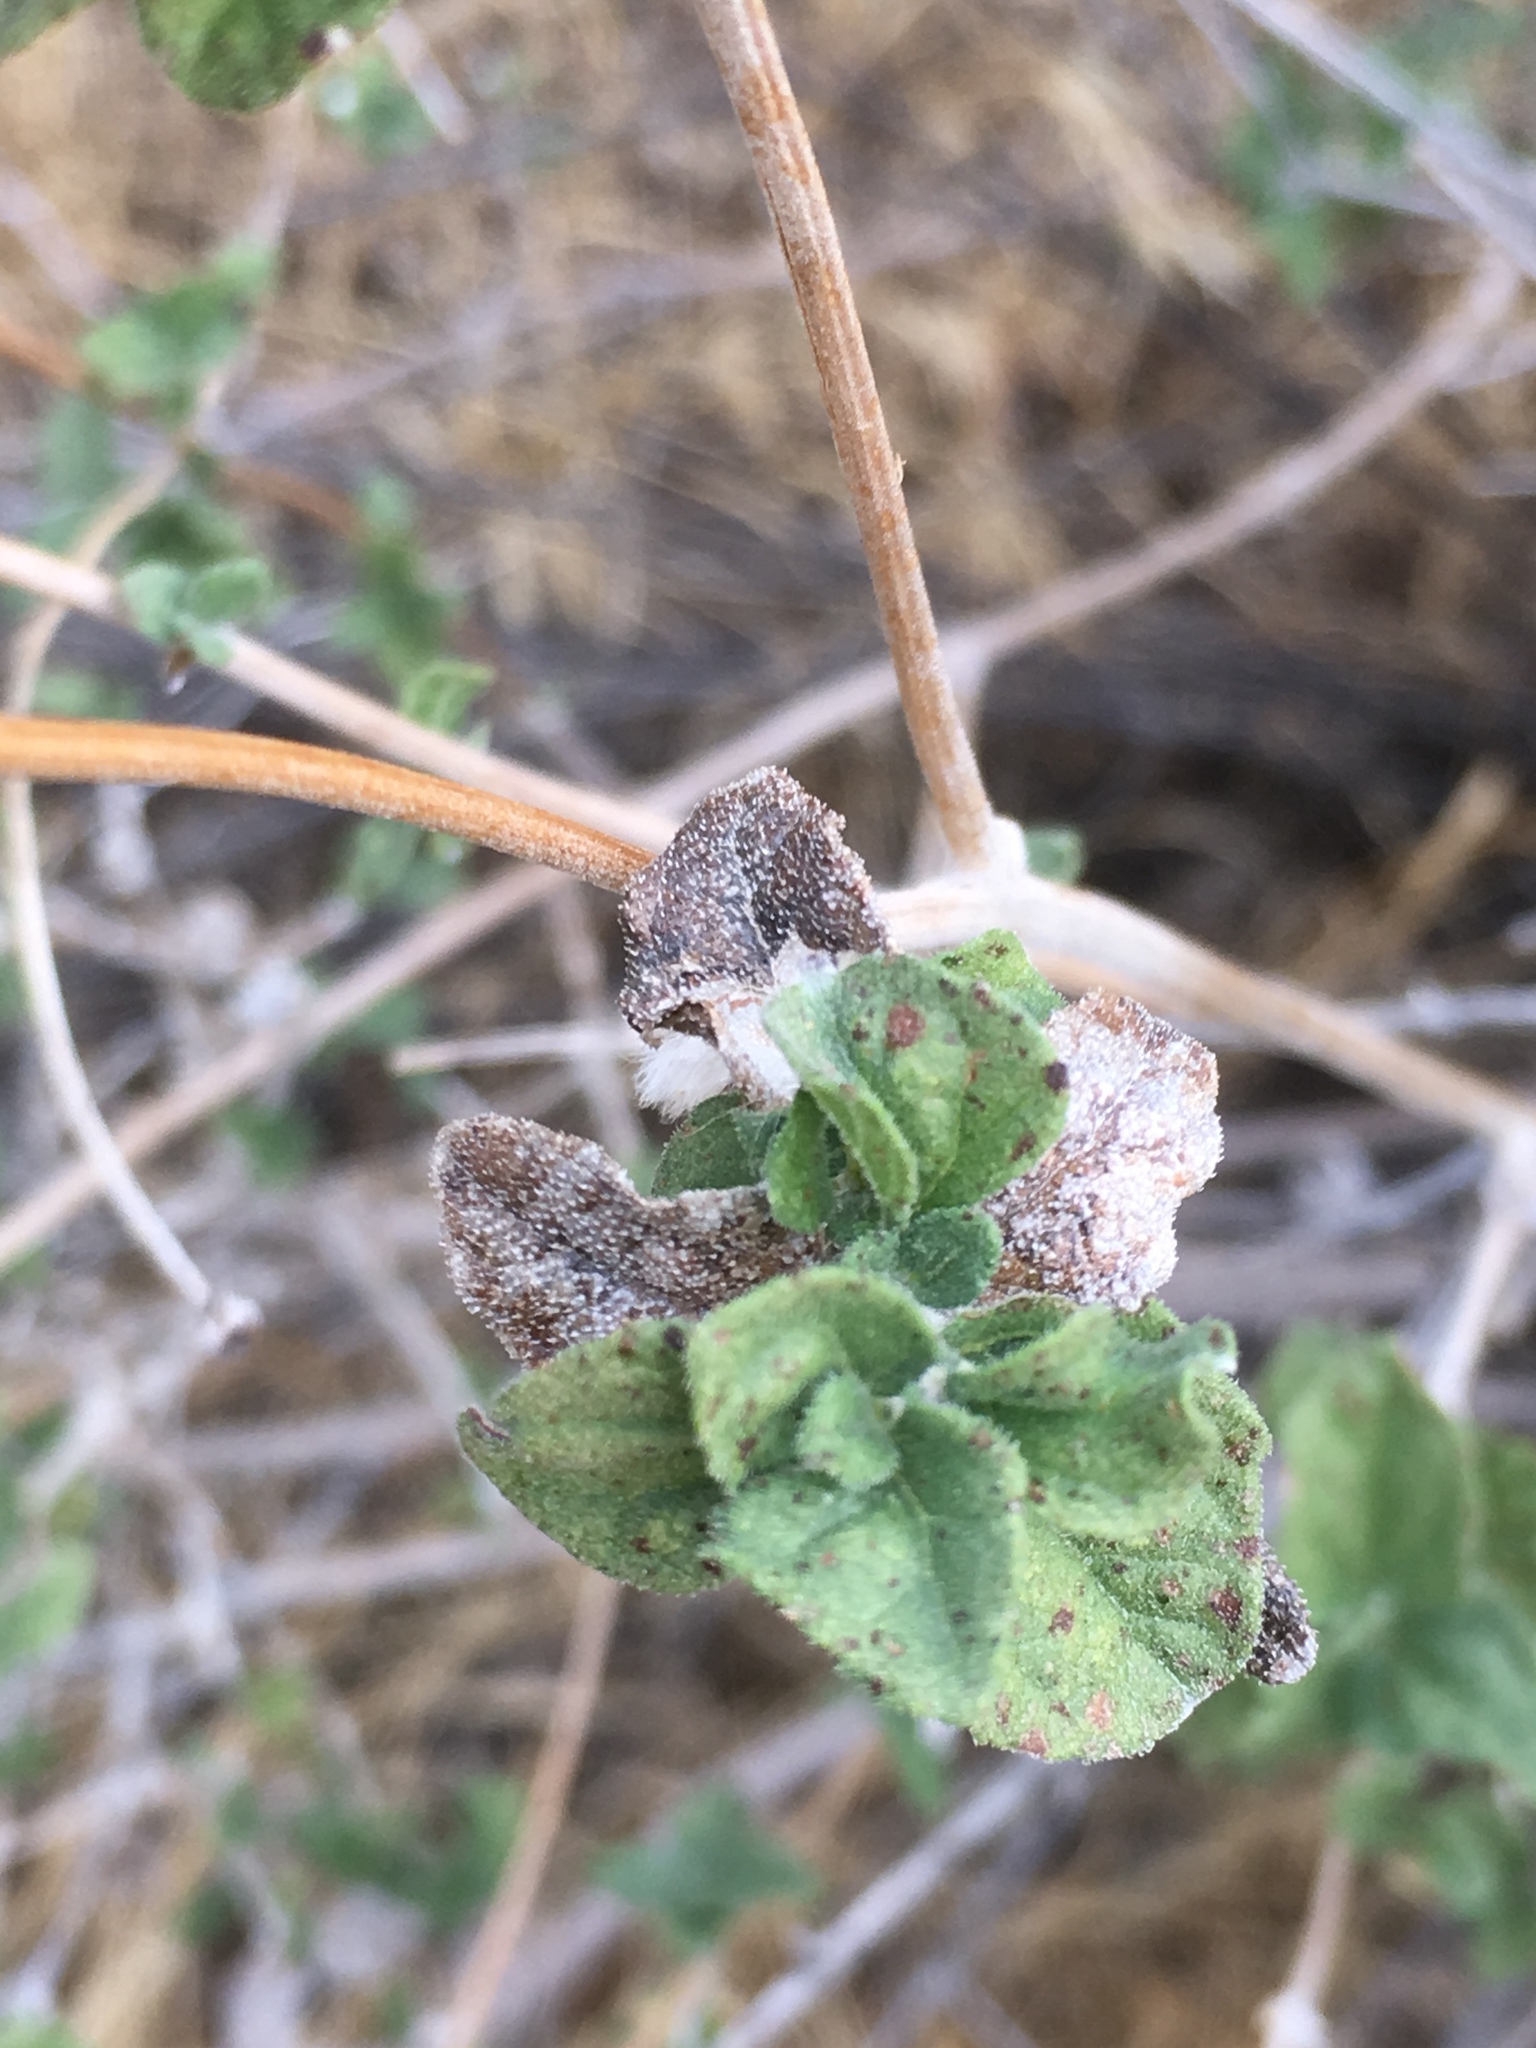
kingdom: Plantae
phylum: Tracheophyta
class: Magnoliopsida
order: Asterales
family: Asteraceae
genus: Bahiopsis
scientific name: Bahiopsis parishii
